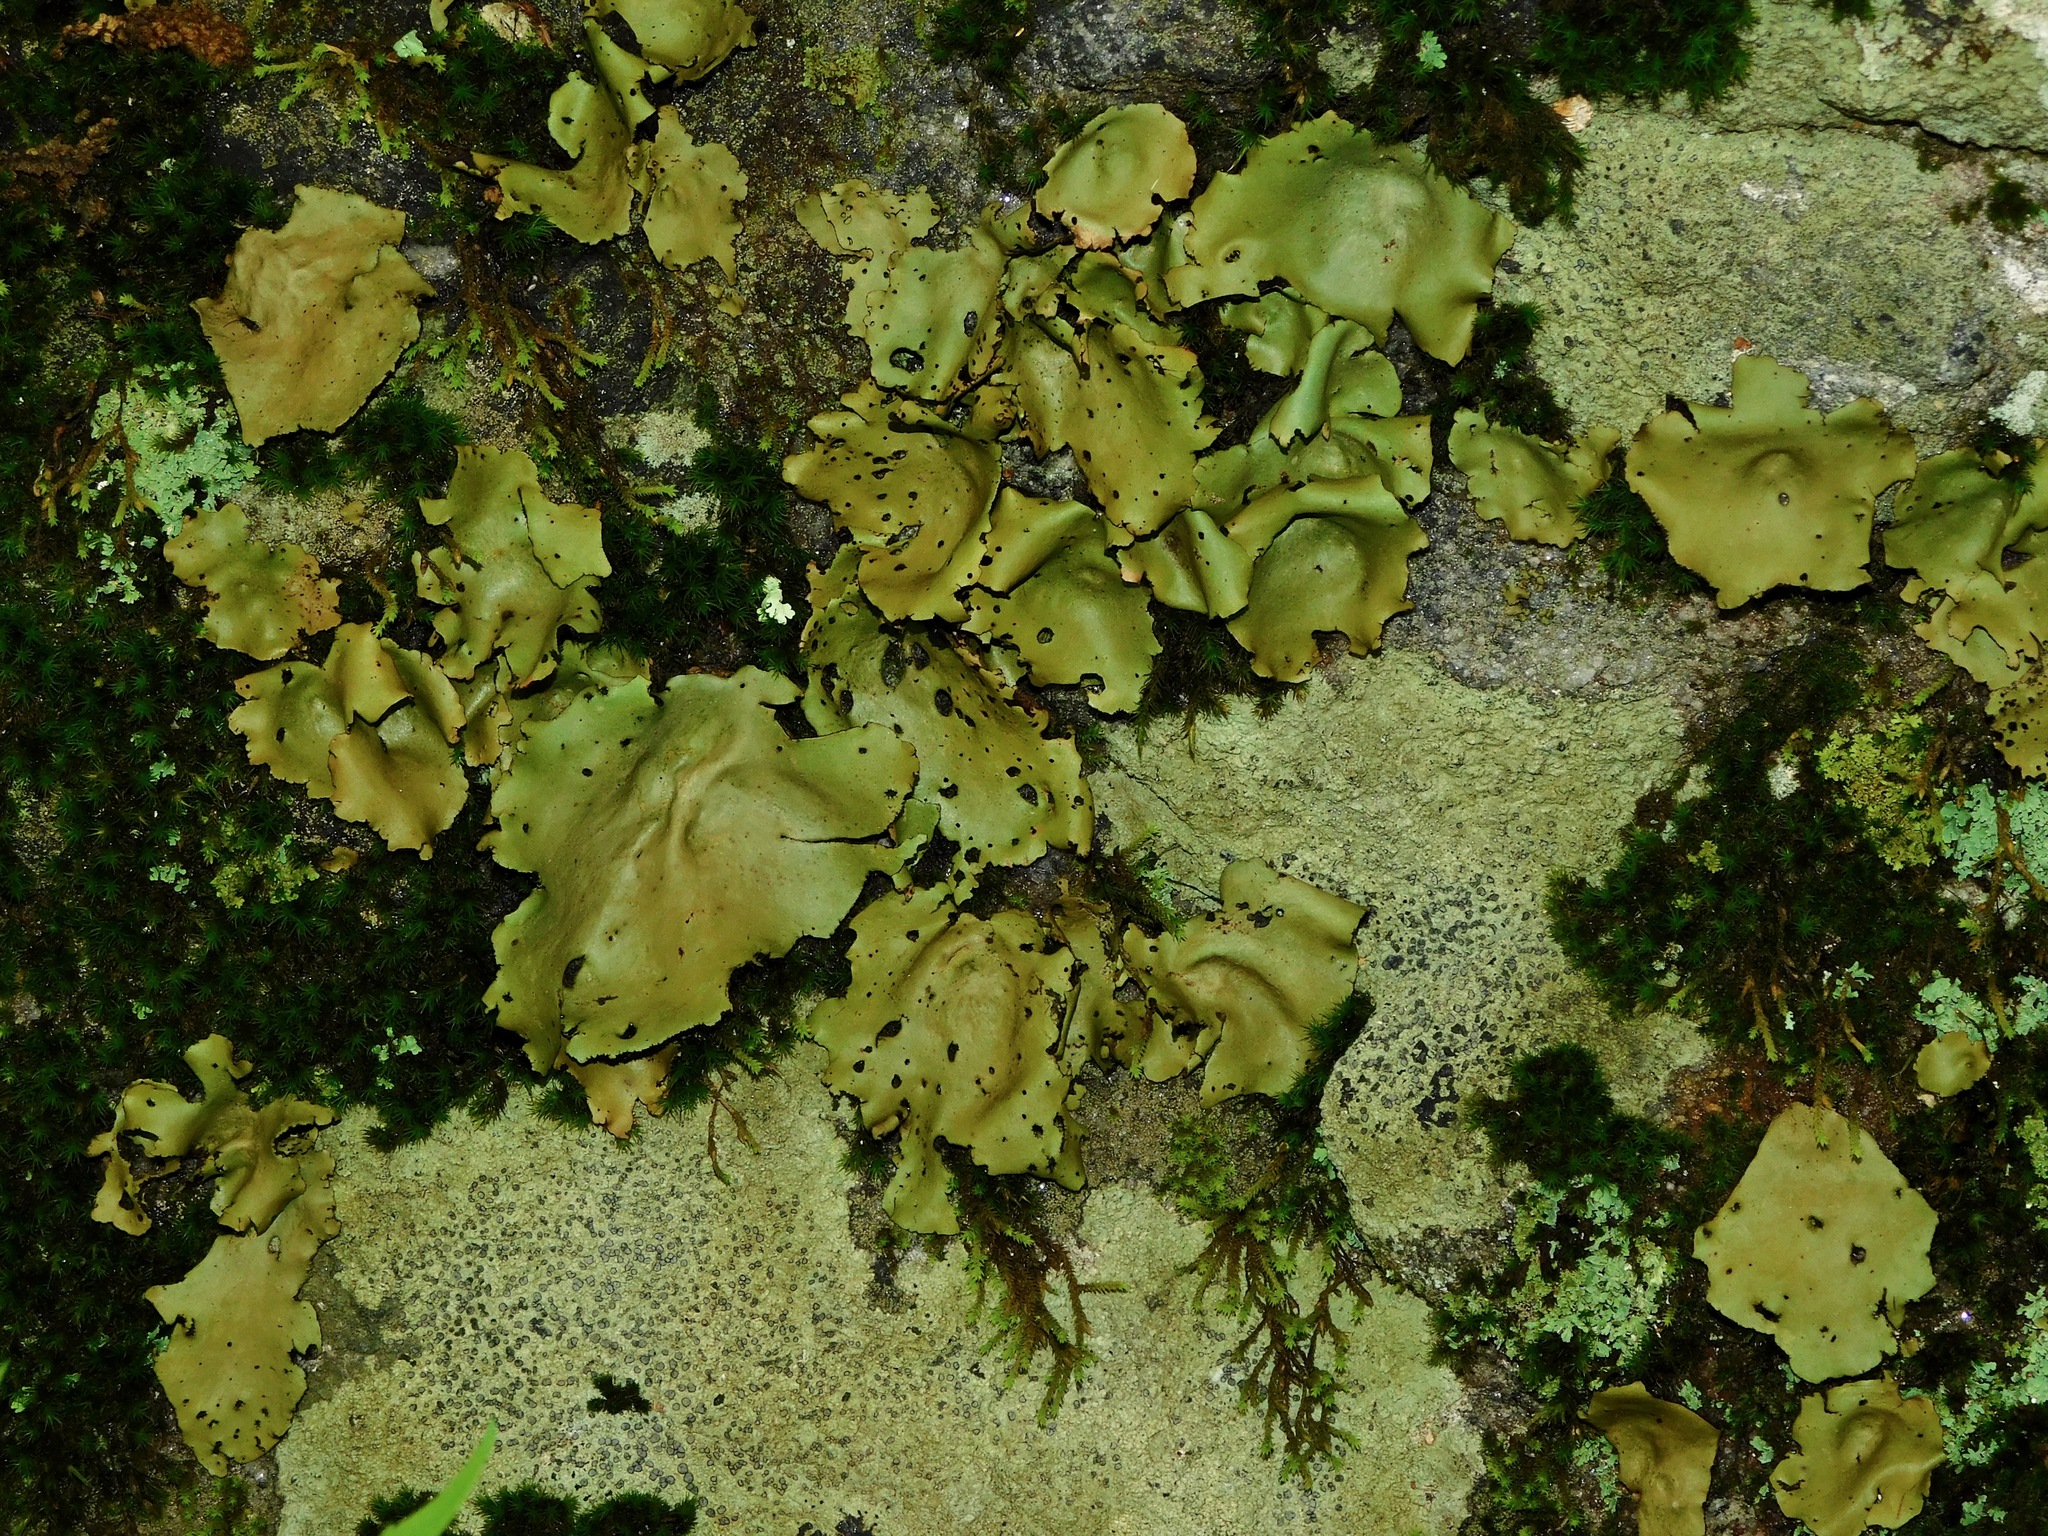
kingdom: Fungi
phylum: Ascomycota
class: Lecanoromycetes
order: Umbilicariales
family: Umbilicariaceae
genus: Umbilicaria
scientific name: Umbilicaria mammulata
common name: Smooth rock tripe
